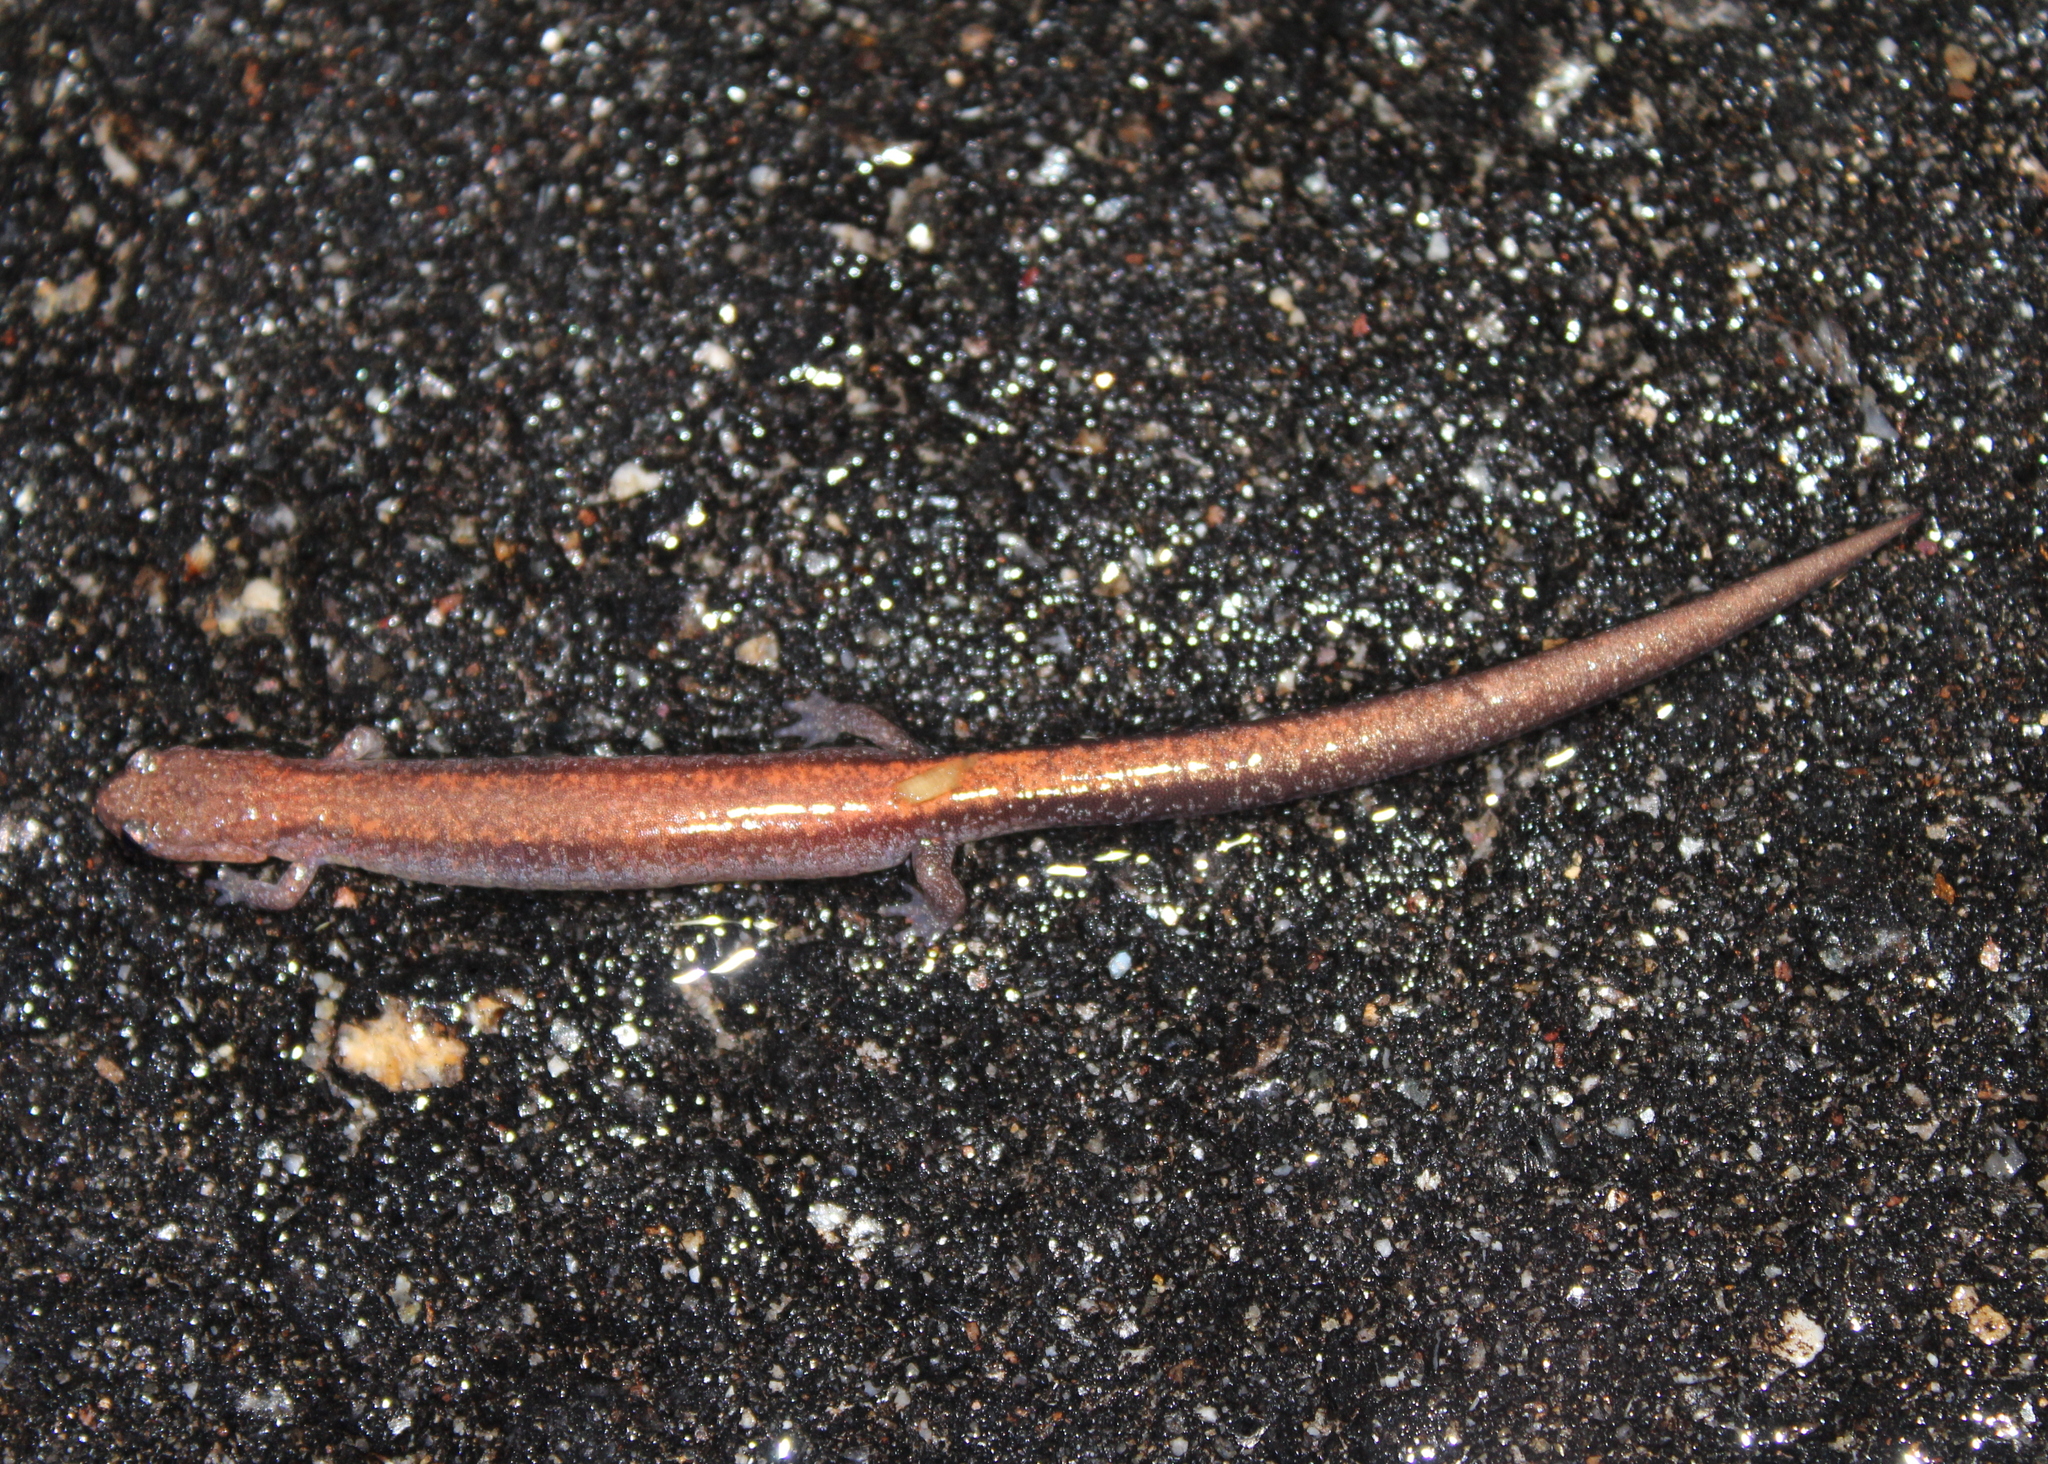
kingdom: Animalia
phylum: Chordata
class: Amphibia
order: Caudata
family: Plethodontidae
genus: Plethodon
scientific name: Plethodon cinereus
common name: Redback salamander
